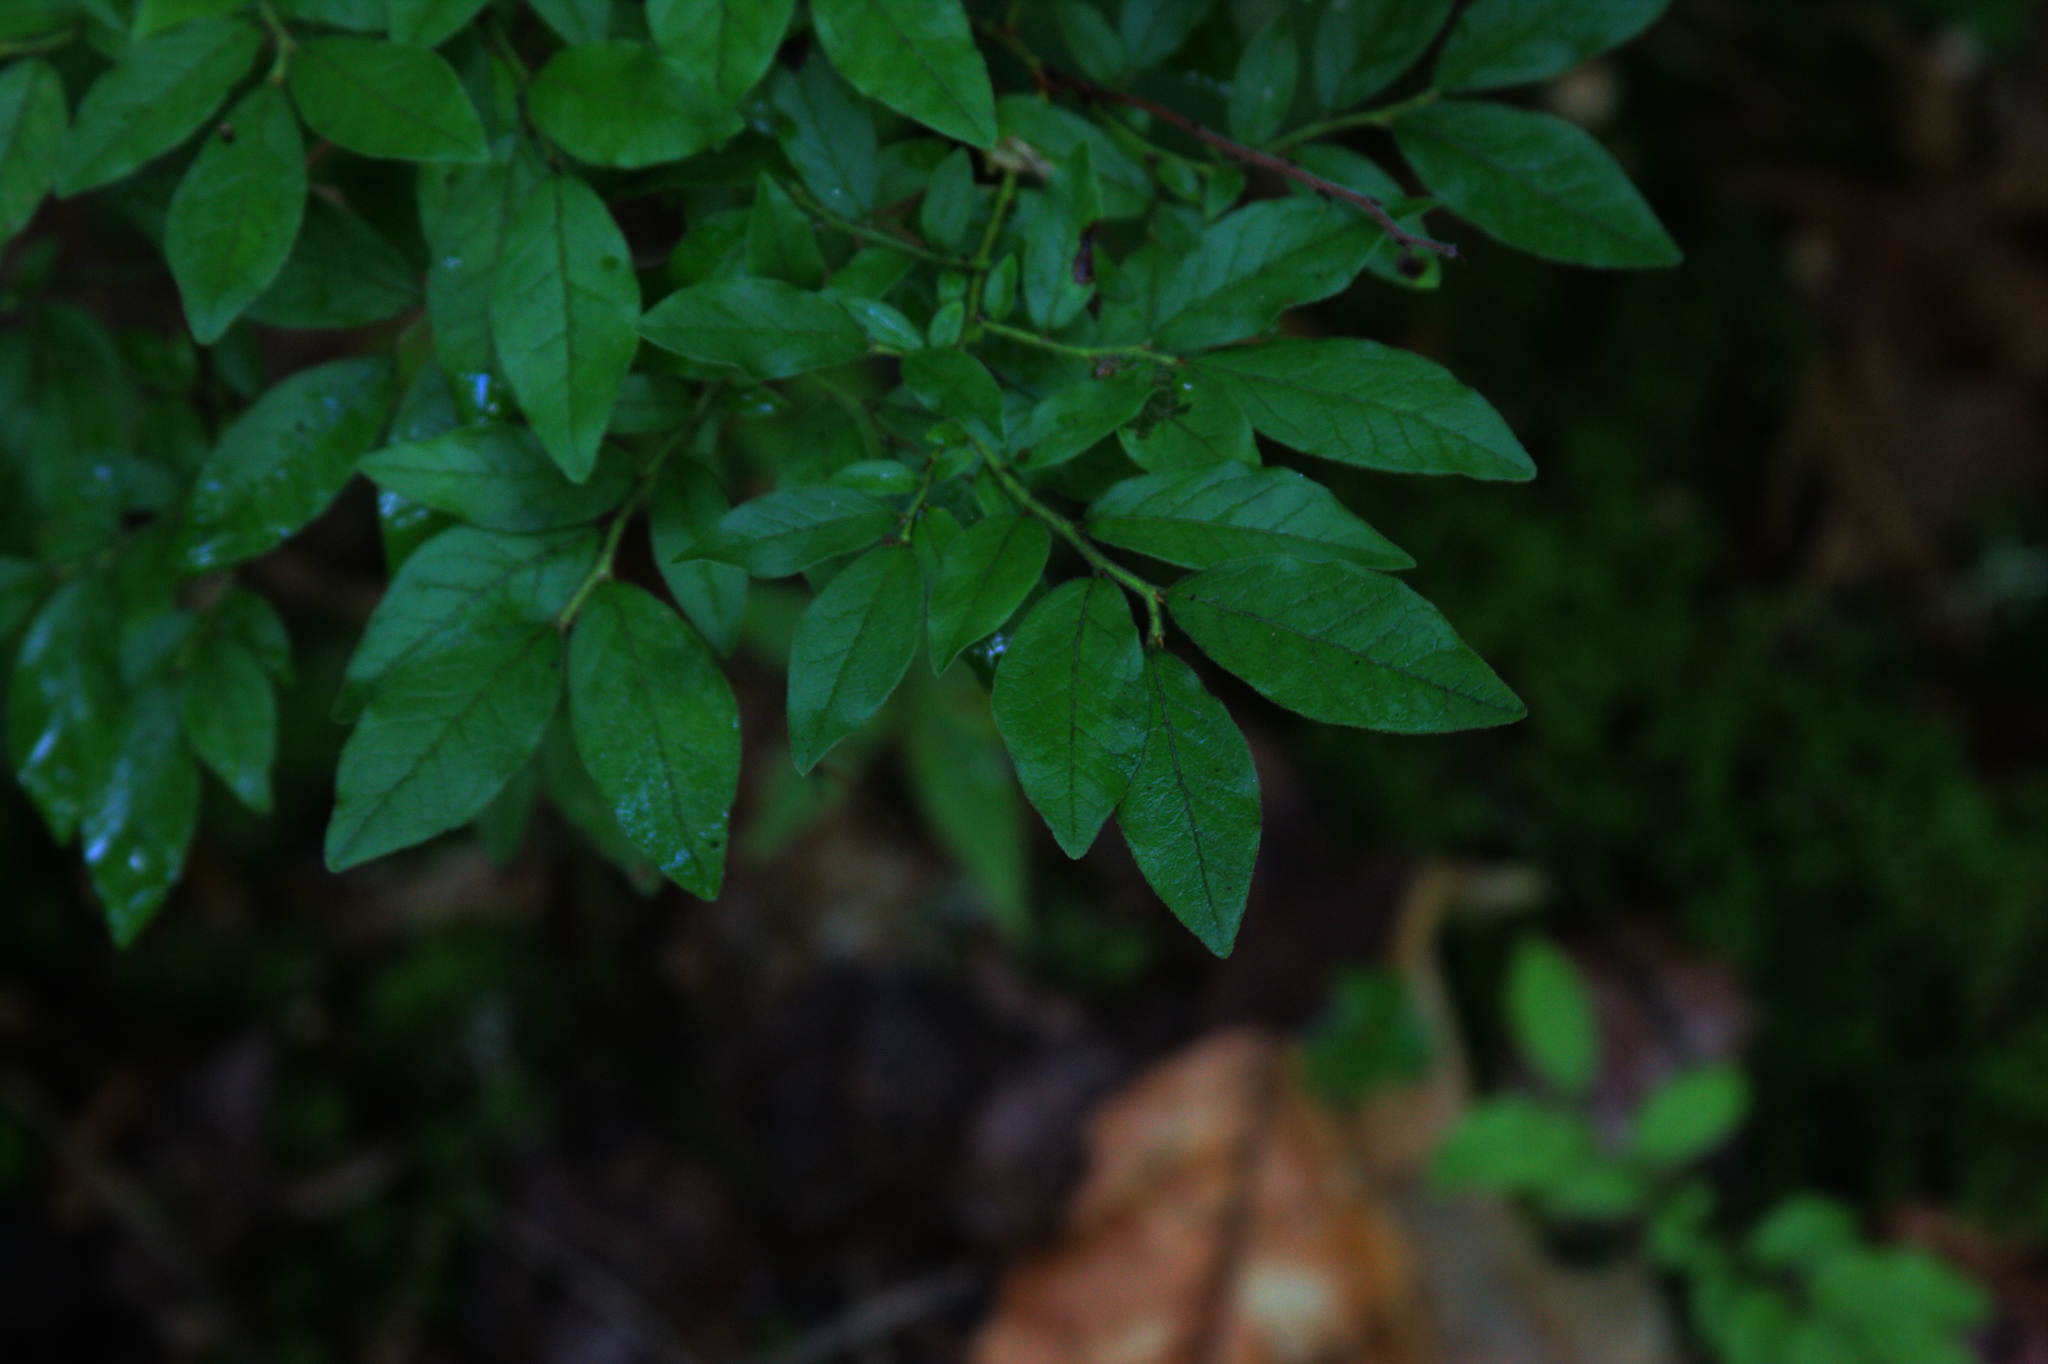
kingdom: Plantae
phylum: Tracheophyta
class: Magnoliopsida
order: Ericales
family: Ericaceae
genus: Vaccinium
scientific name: Vaccinium myrtilloides
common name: Canada blueberry
